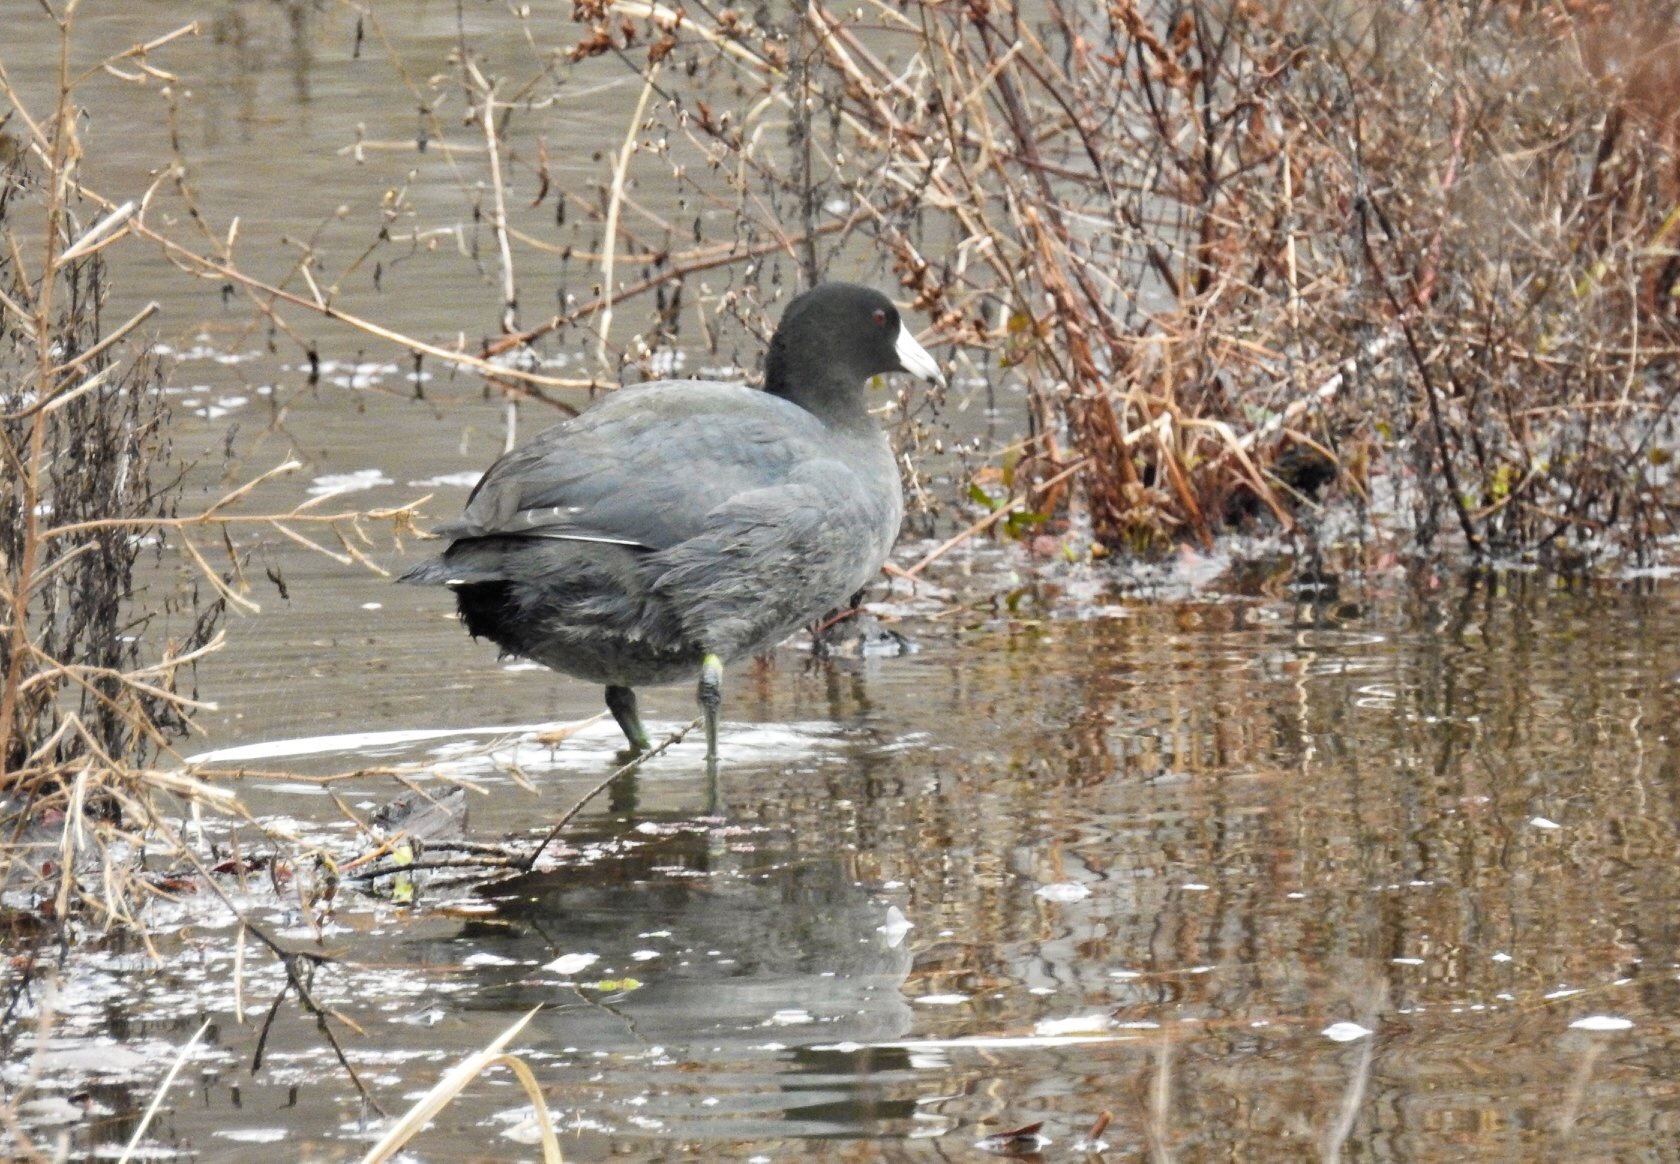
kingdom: Animalia
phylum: Chordata
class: Aves
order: Gruiformes
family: Rallidae
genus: Fulica
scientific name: Fulica americana
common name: American coot
